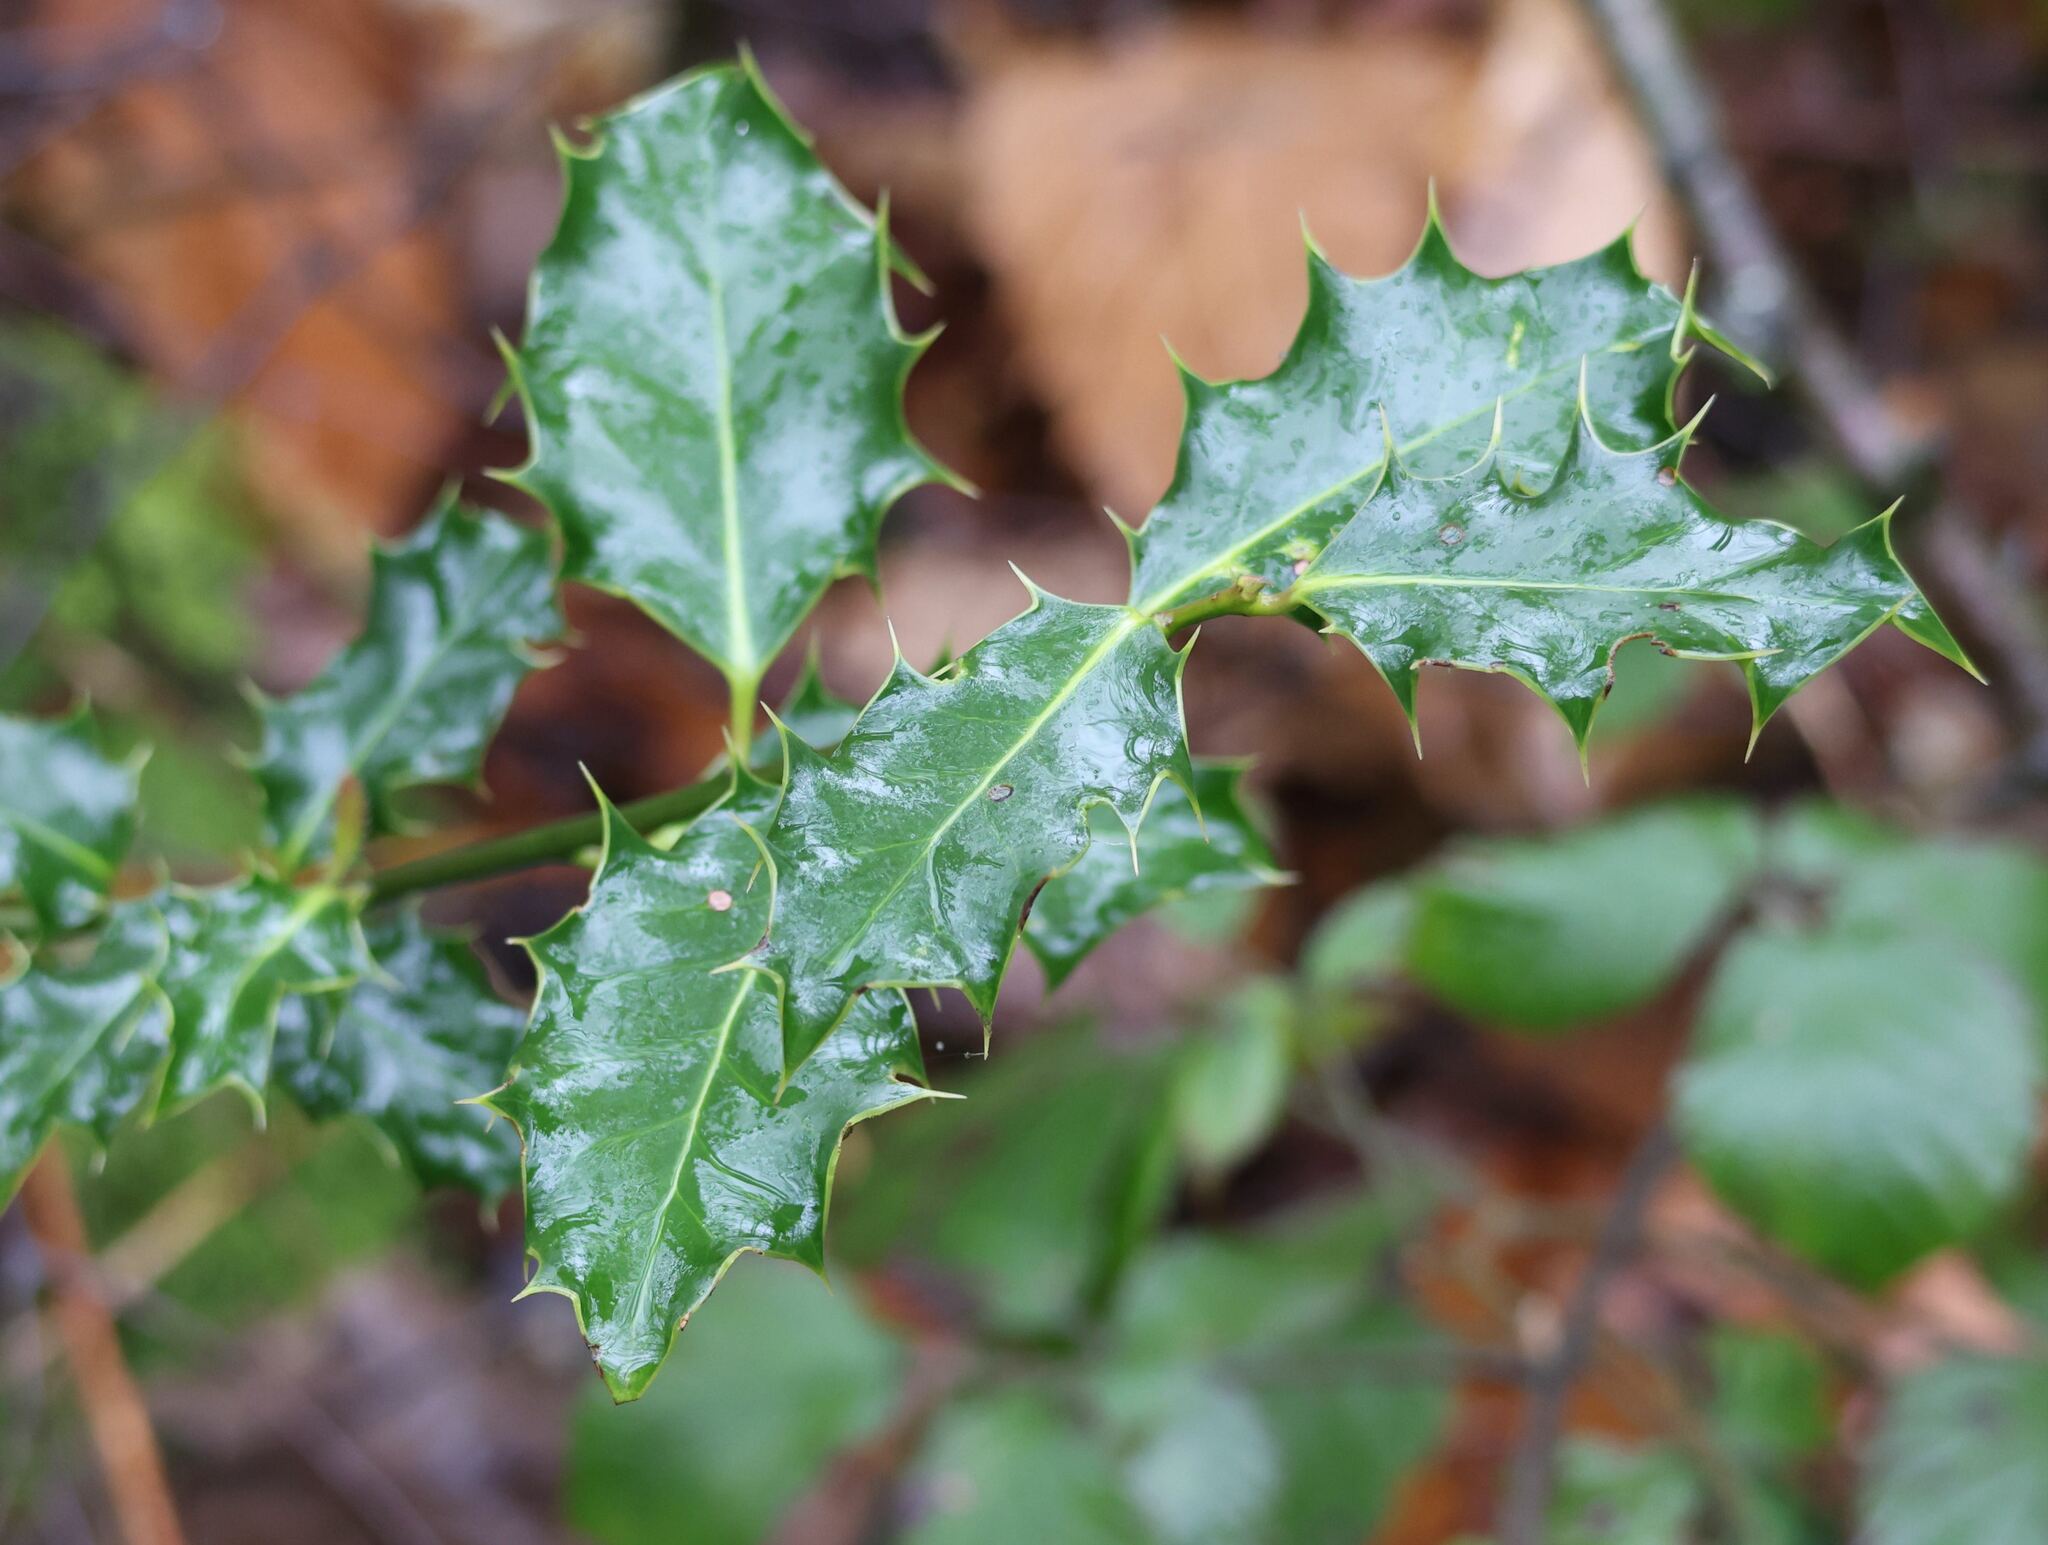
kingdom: Plantae
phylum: Tracheophyta
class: Magnoliopsida
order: Aquifoliales
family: Aquifoliaceae
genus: Ilex
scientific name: Ilex aquifolium
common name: English holly
